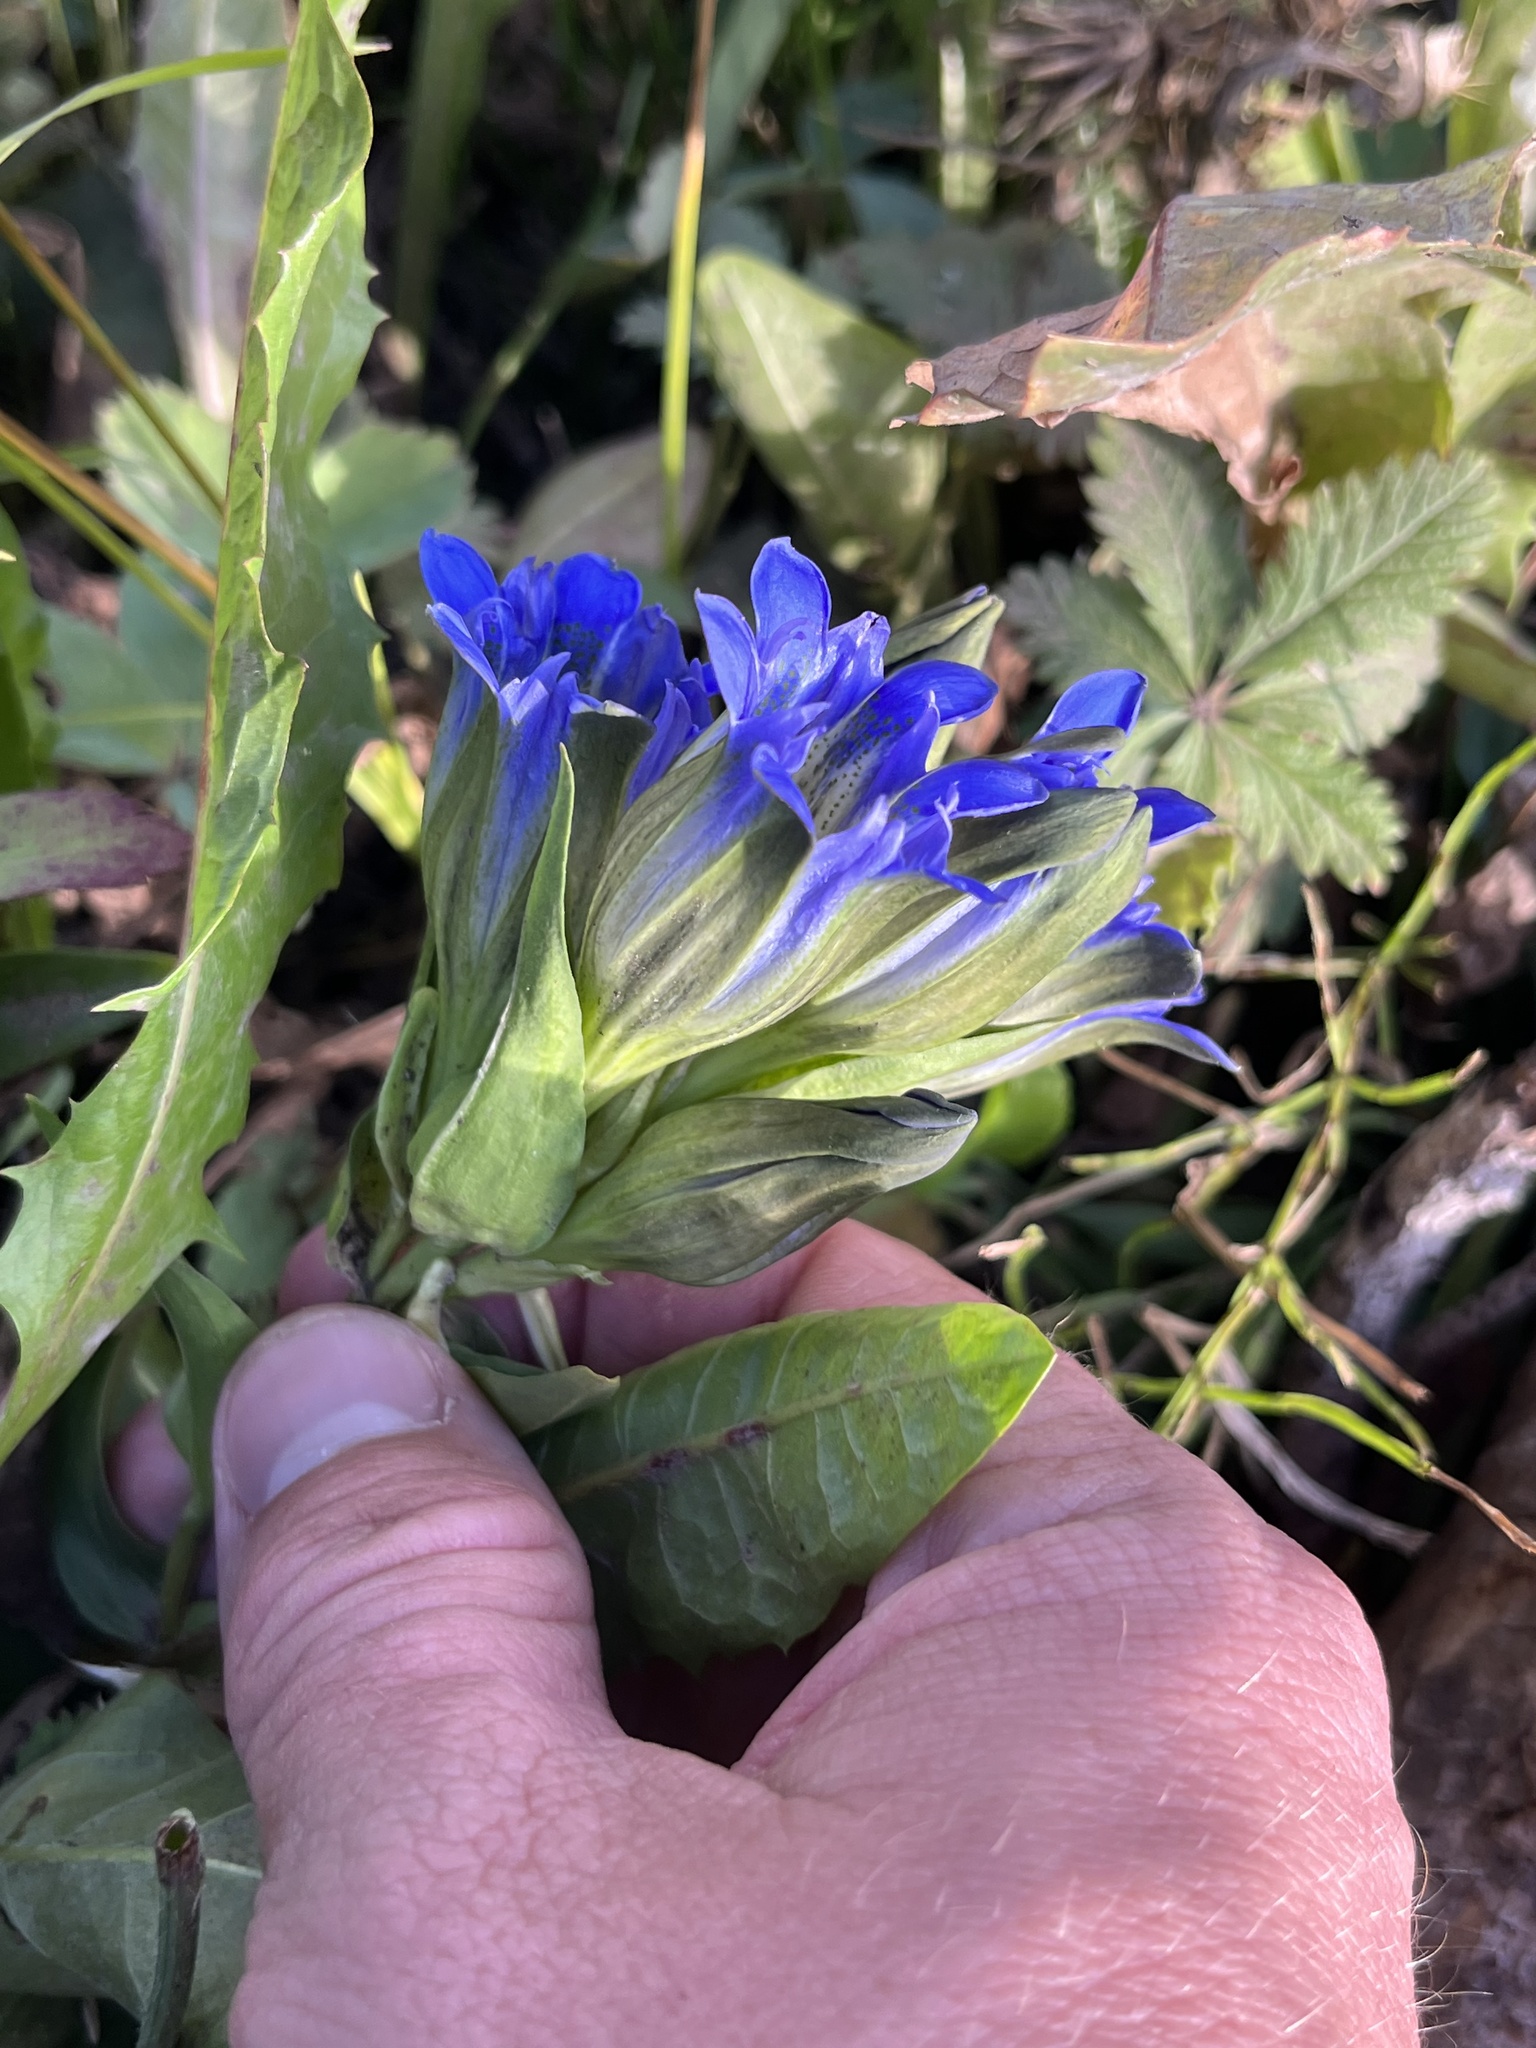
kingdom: Plantae
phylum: Tracheophyta
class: Magnoliopsida
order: Gentianales
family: Gentianaceae
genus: Gentiana
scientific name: Gentiana parryi
